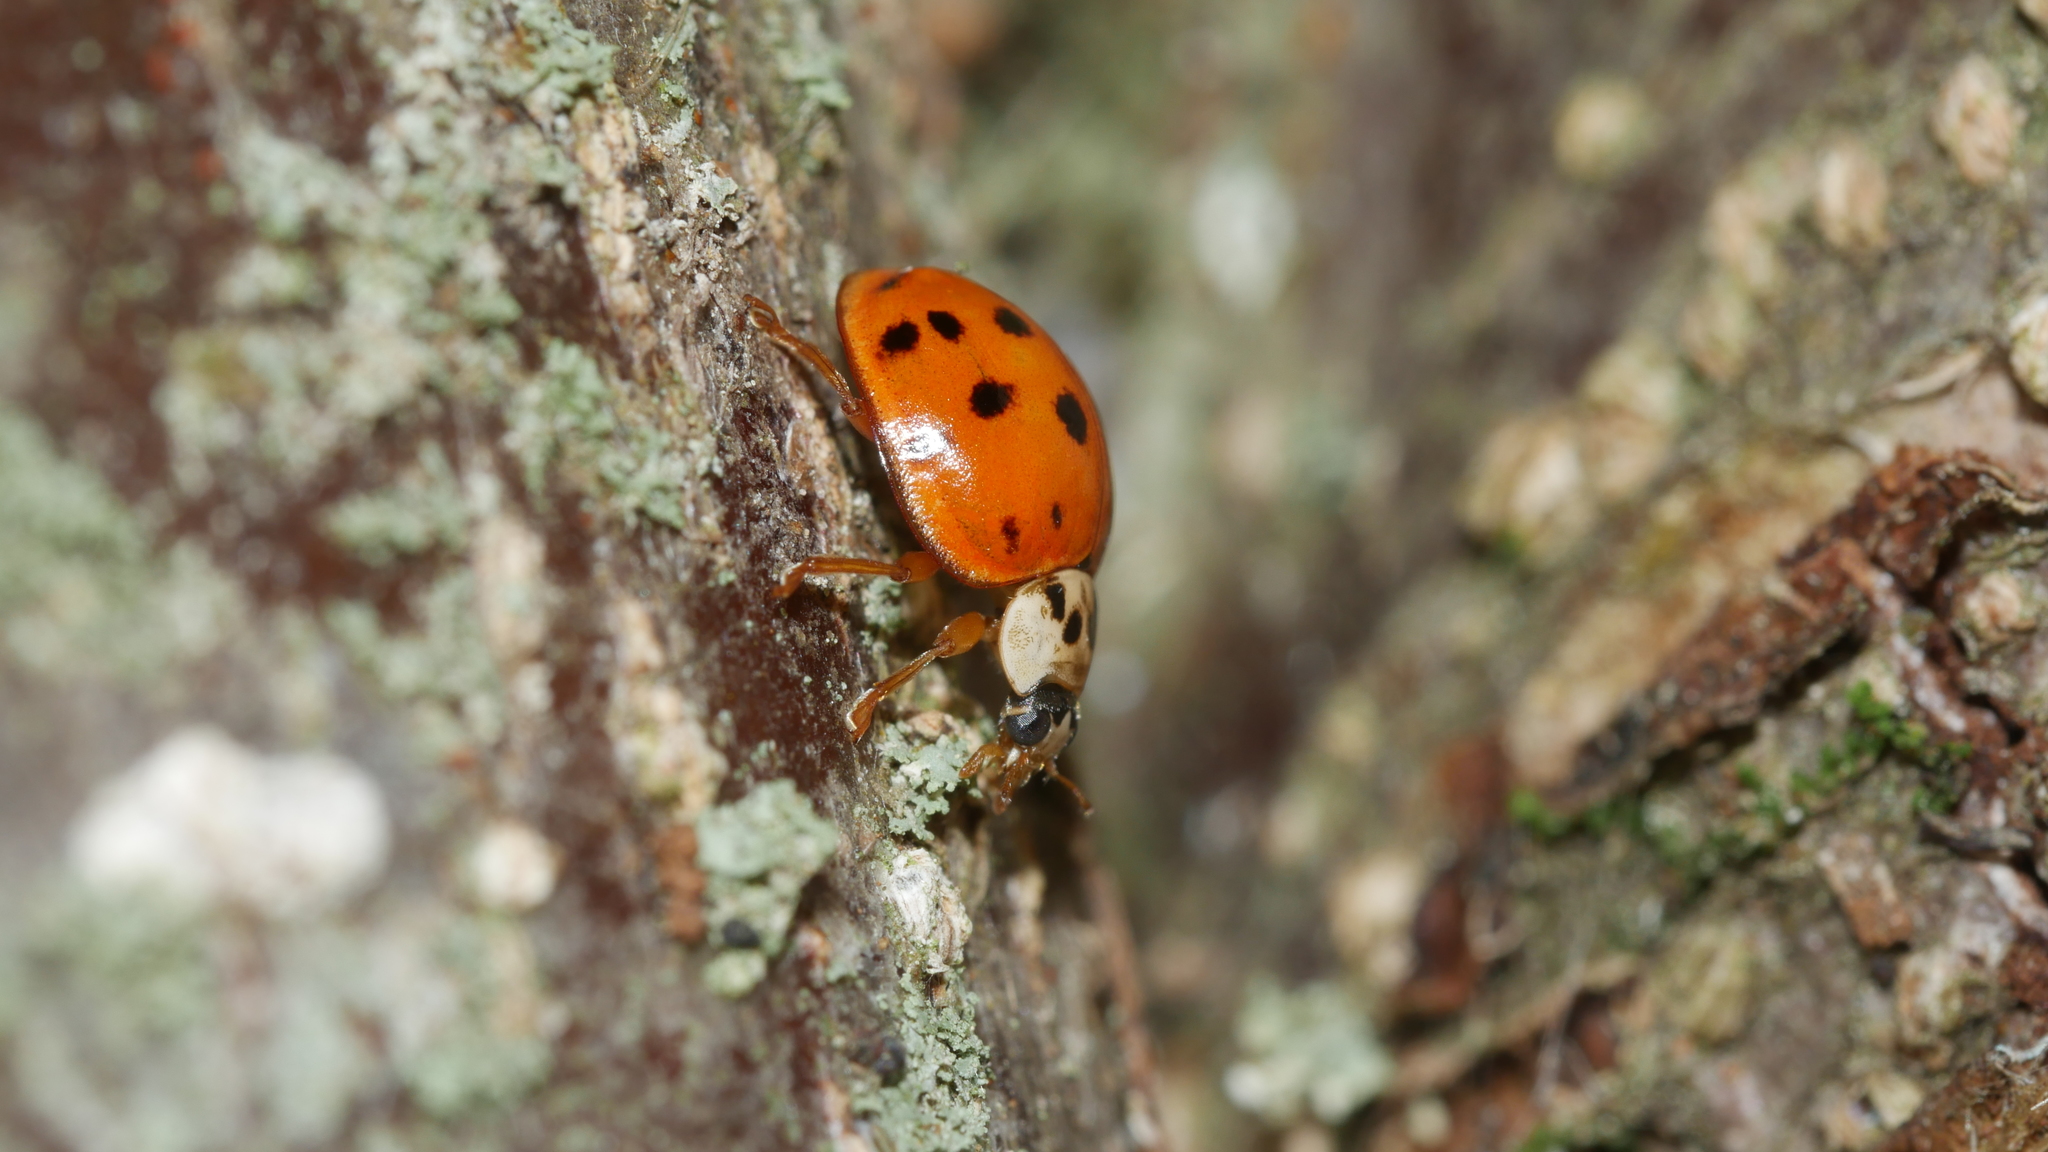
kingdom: Animalia
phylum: Arthropoda
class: Insecta
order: Coleoptera
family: Coccinellidae
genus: Harmonia
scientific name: Harmonia axyridis
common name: Harlequin ladybird
